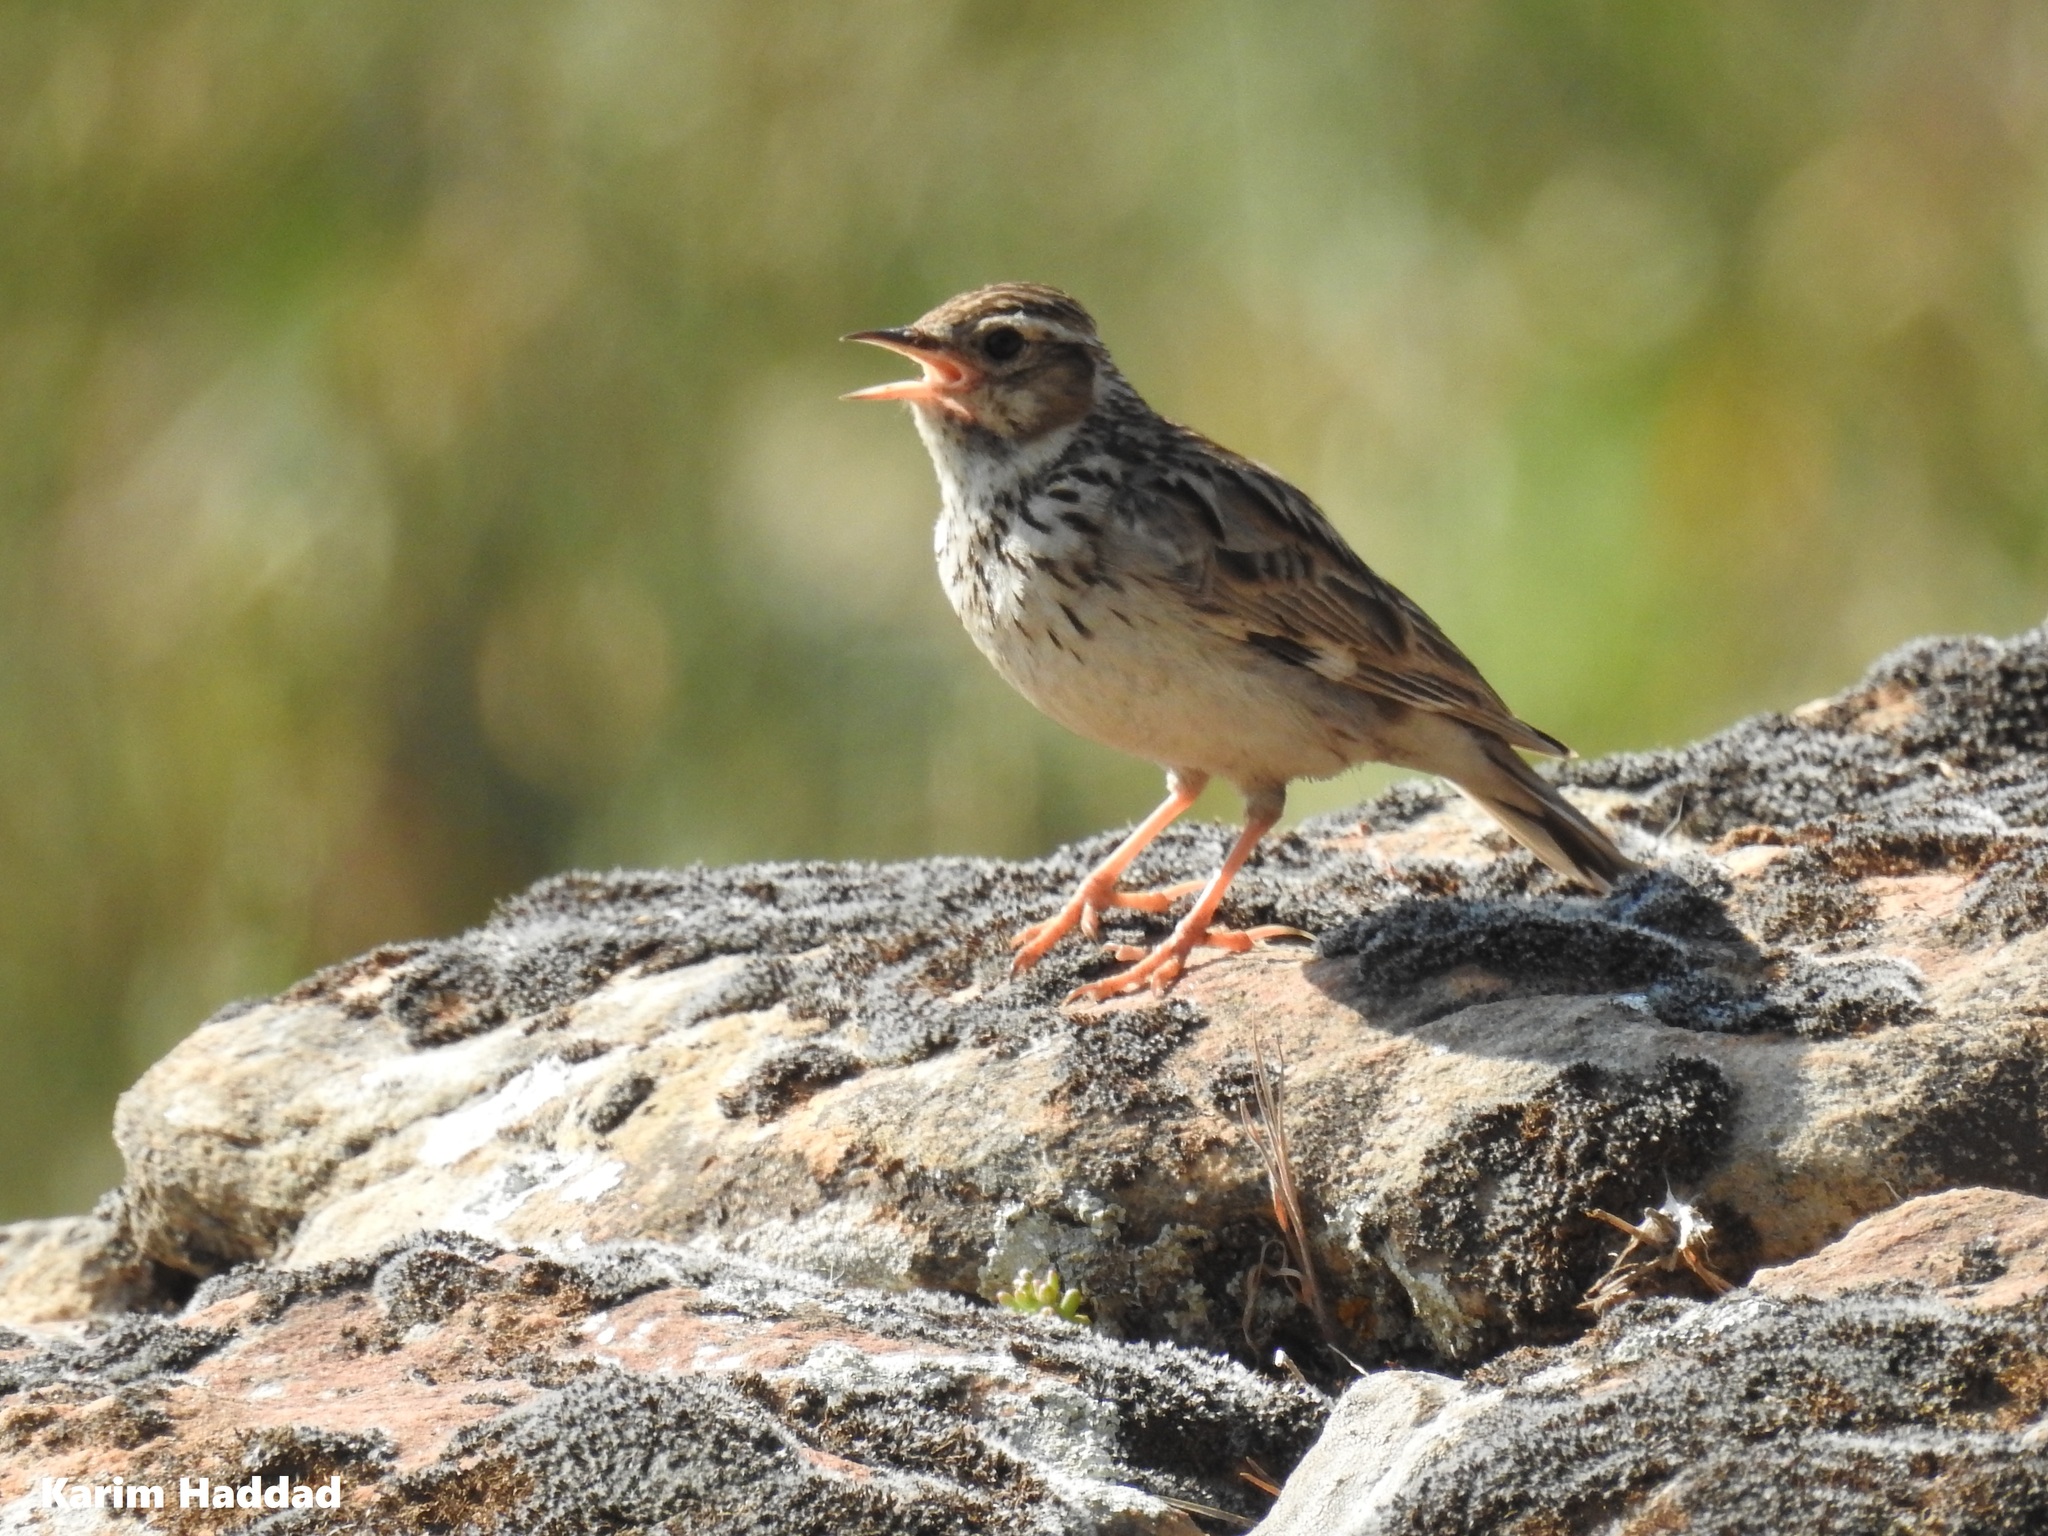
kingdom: Animalia
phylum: Chordata
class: Aves
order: Passeriformes
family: Alaudidae
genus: Lullula
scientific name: Lullula arborea
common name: Woodlark
